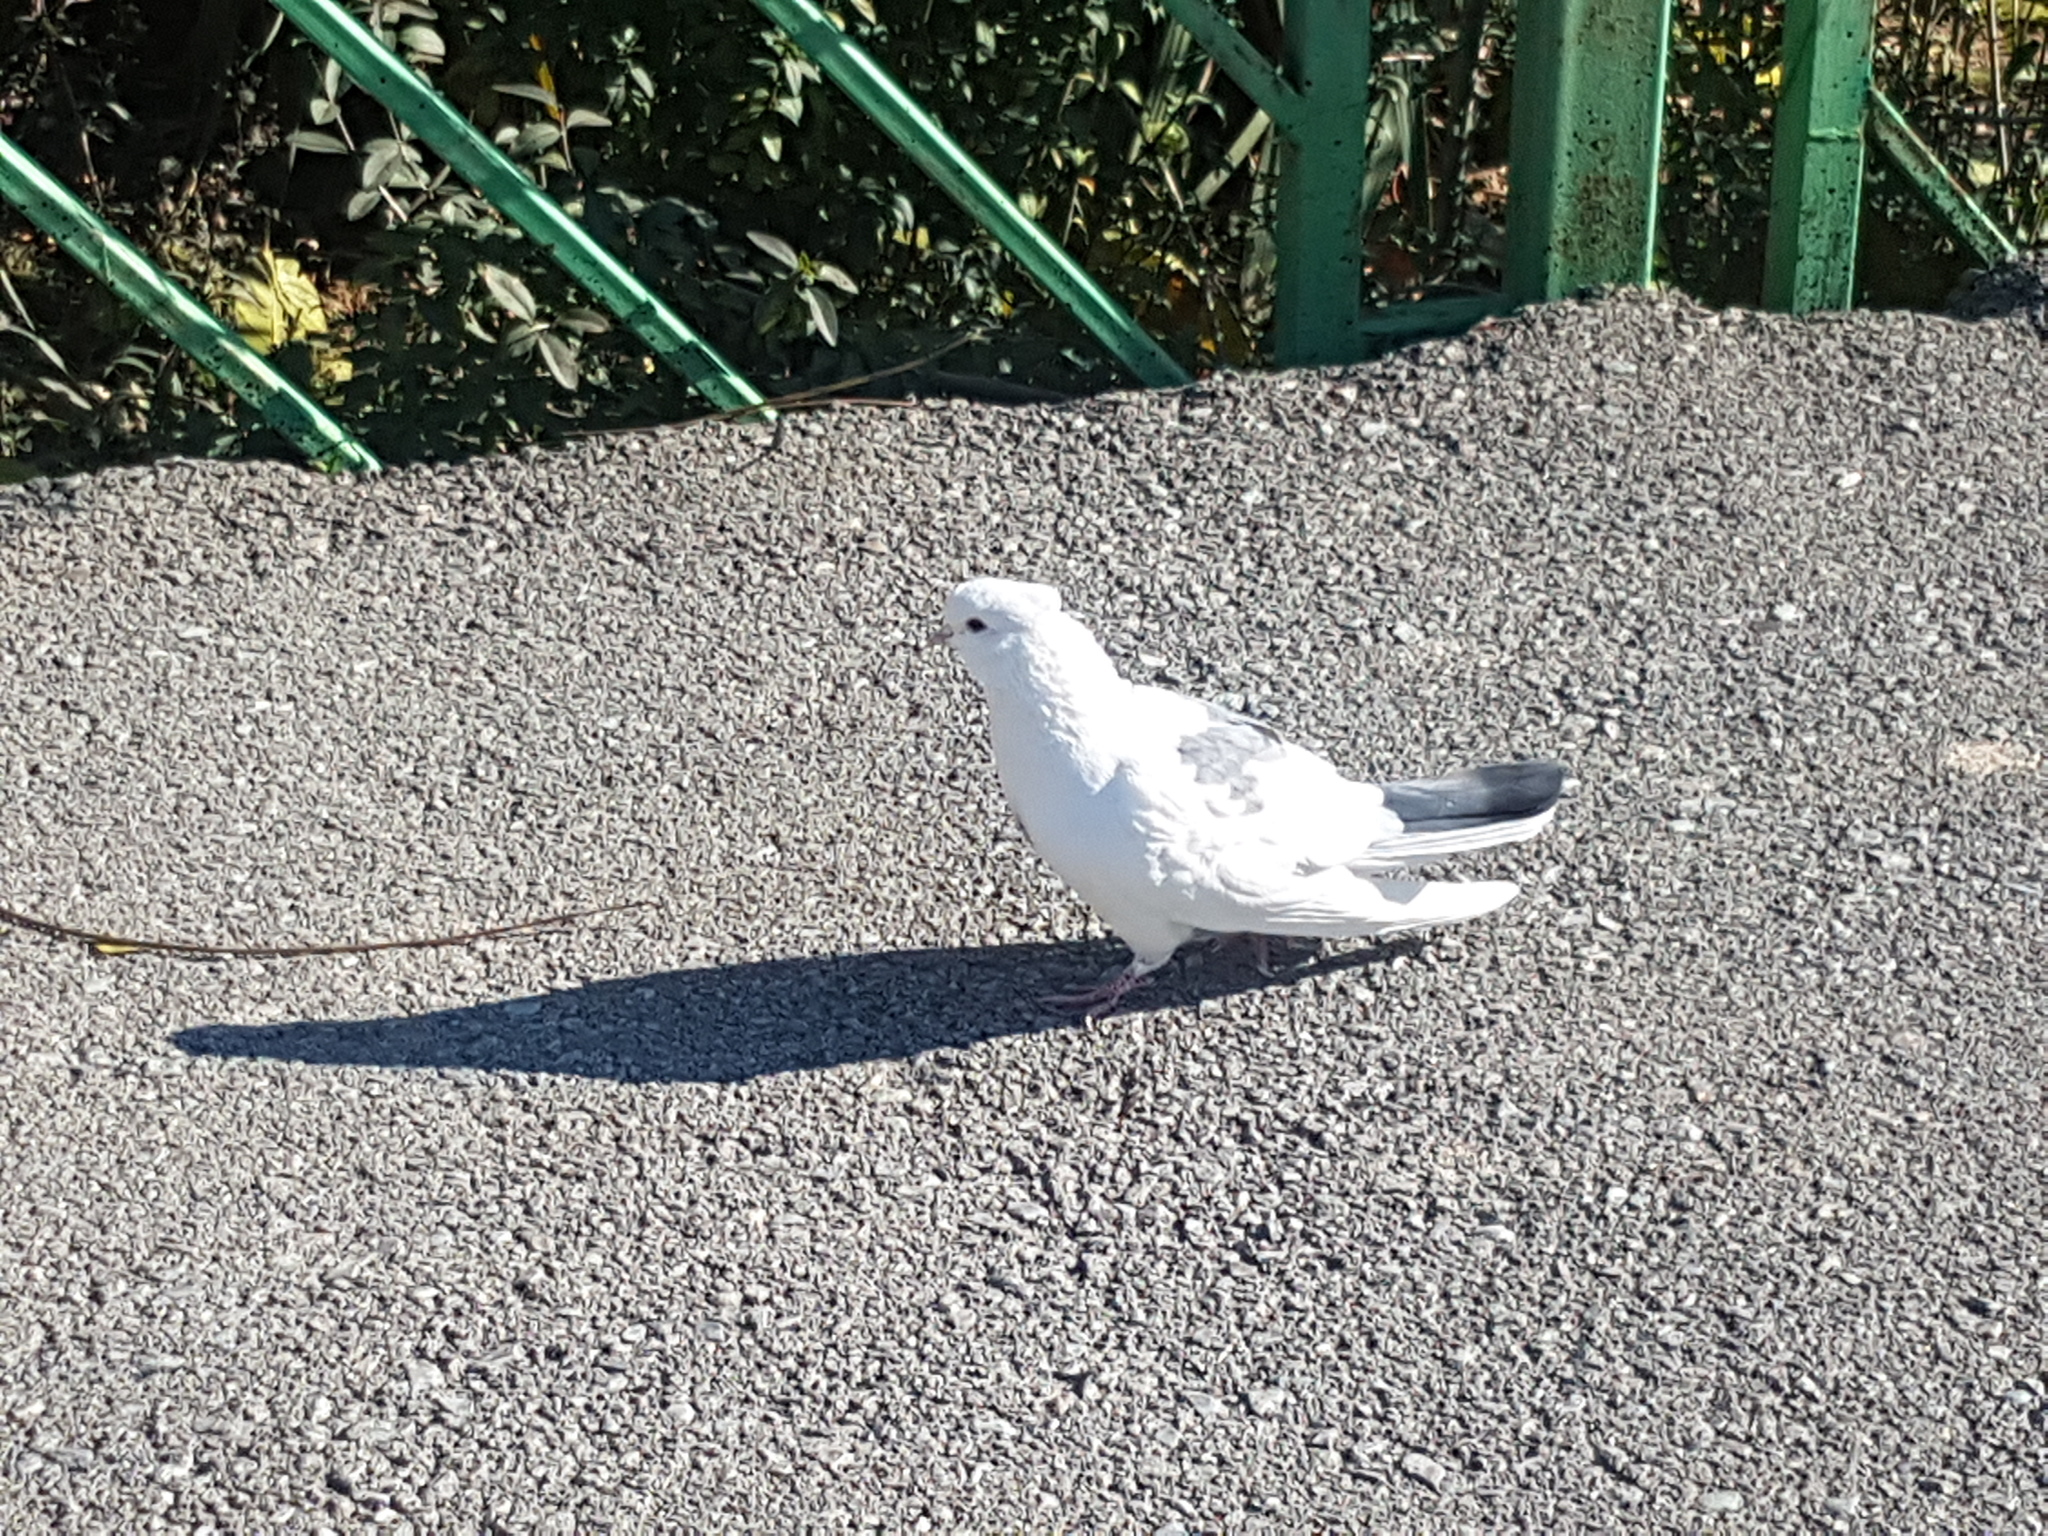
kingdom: Animalia
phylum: Chordata
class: Aves
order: Columbiformes
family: Columbidae
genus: Columba
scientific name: Columba livia
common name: Rock pigeon
